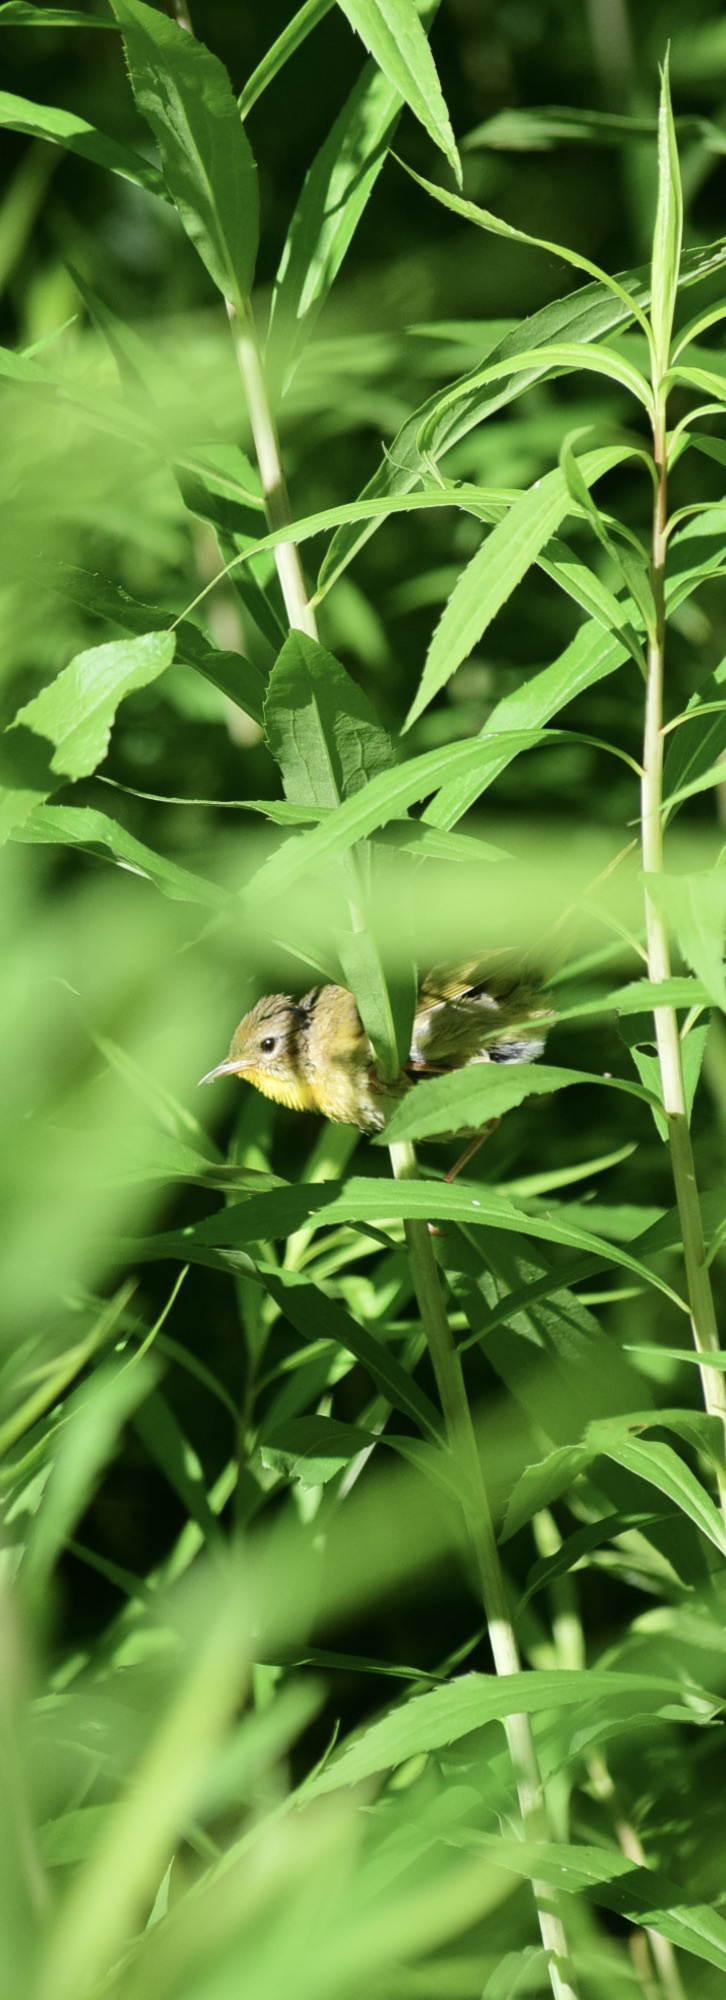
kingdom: Animalia
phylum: Chordata
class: Aves
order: Passeriformes
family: Parulidae
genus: Geothlypis
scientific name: Geothlypis trichas
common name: Common yellowthroat
